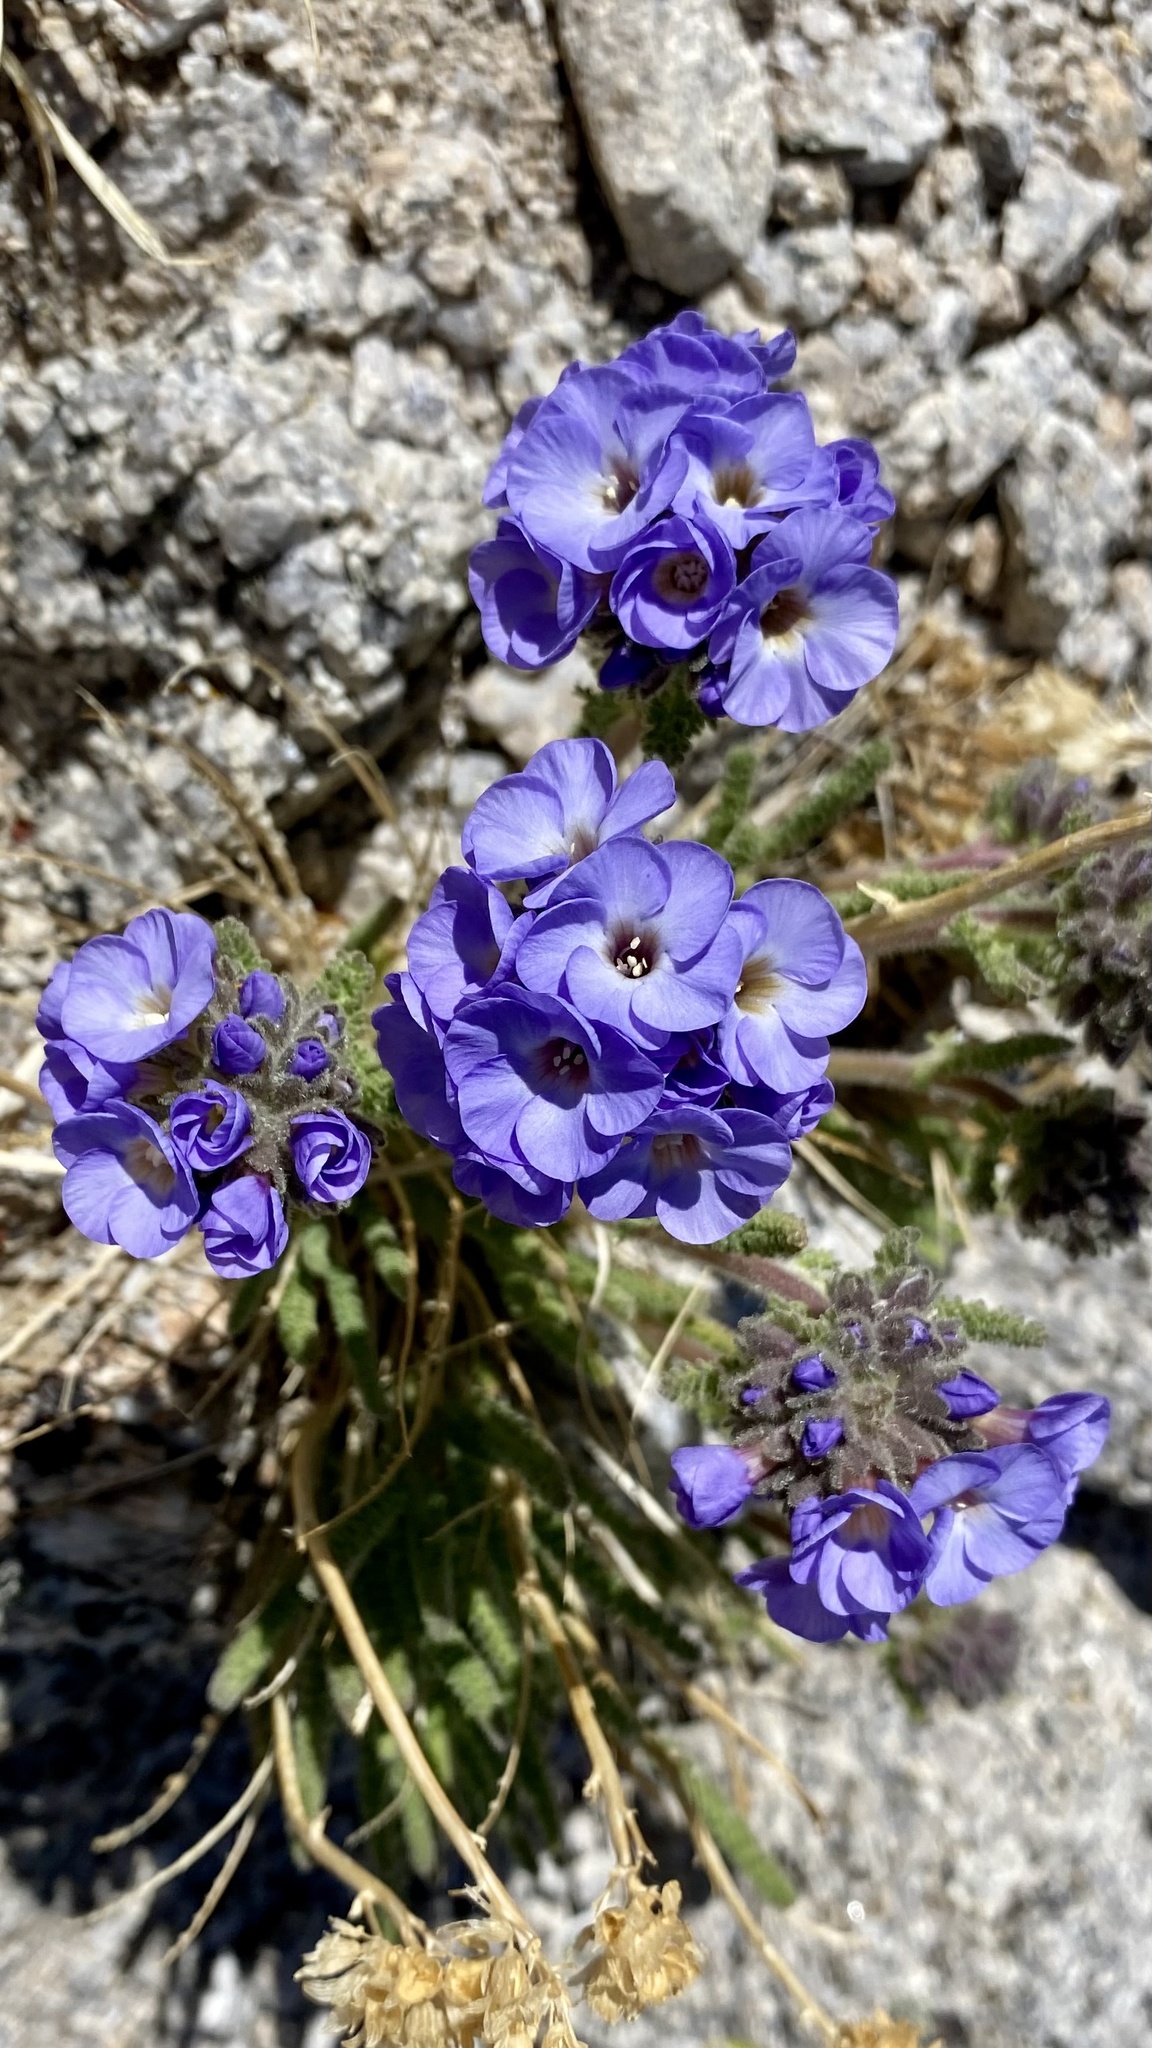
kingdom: Plantae
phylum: Tracheophyta
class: Magnoliopsida
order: Ericales
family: Polemoniaceae
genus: Polemonium
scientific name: Polemonium eximium
